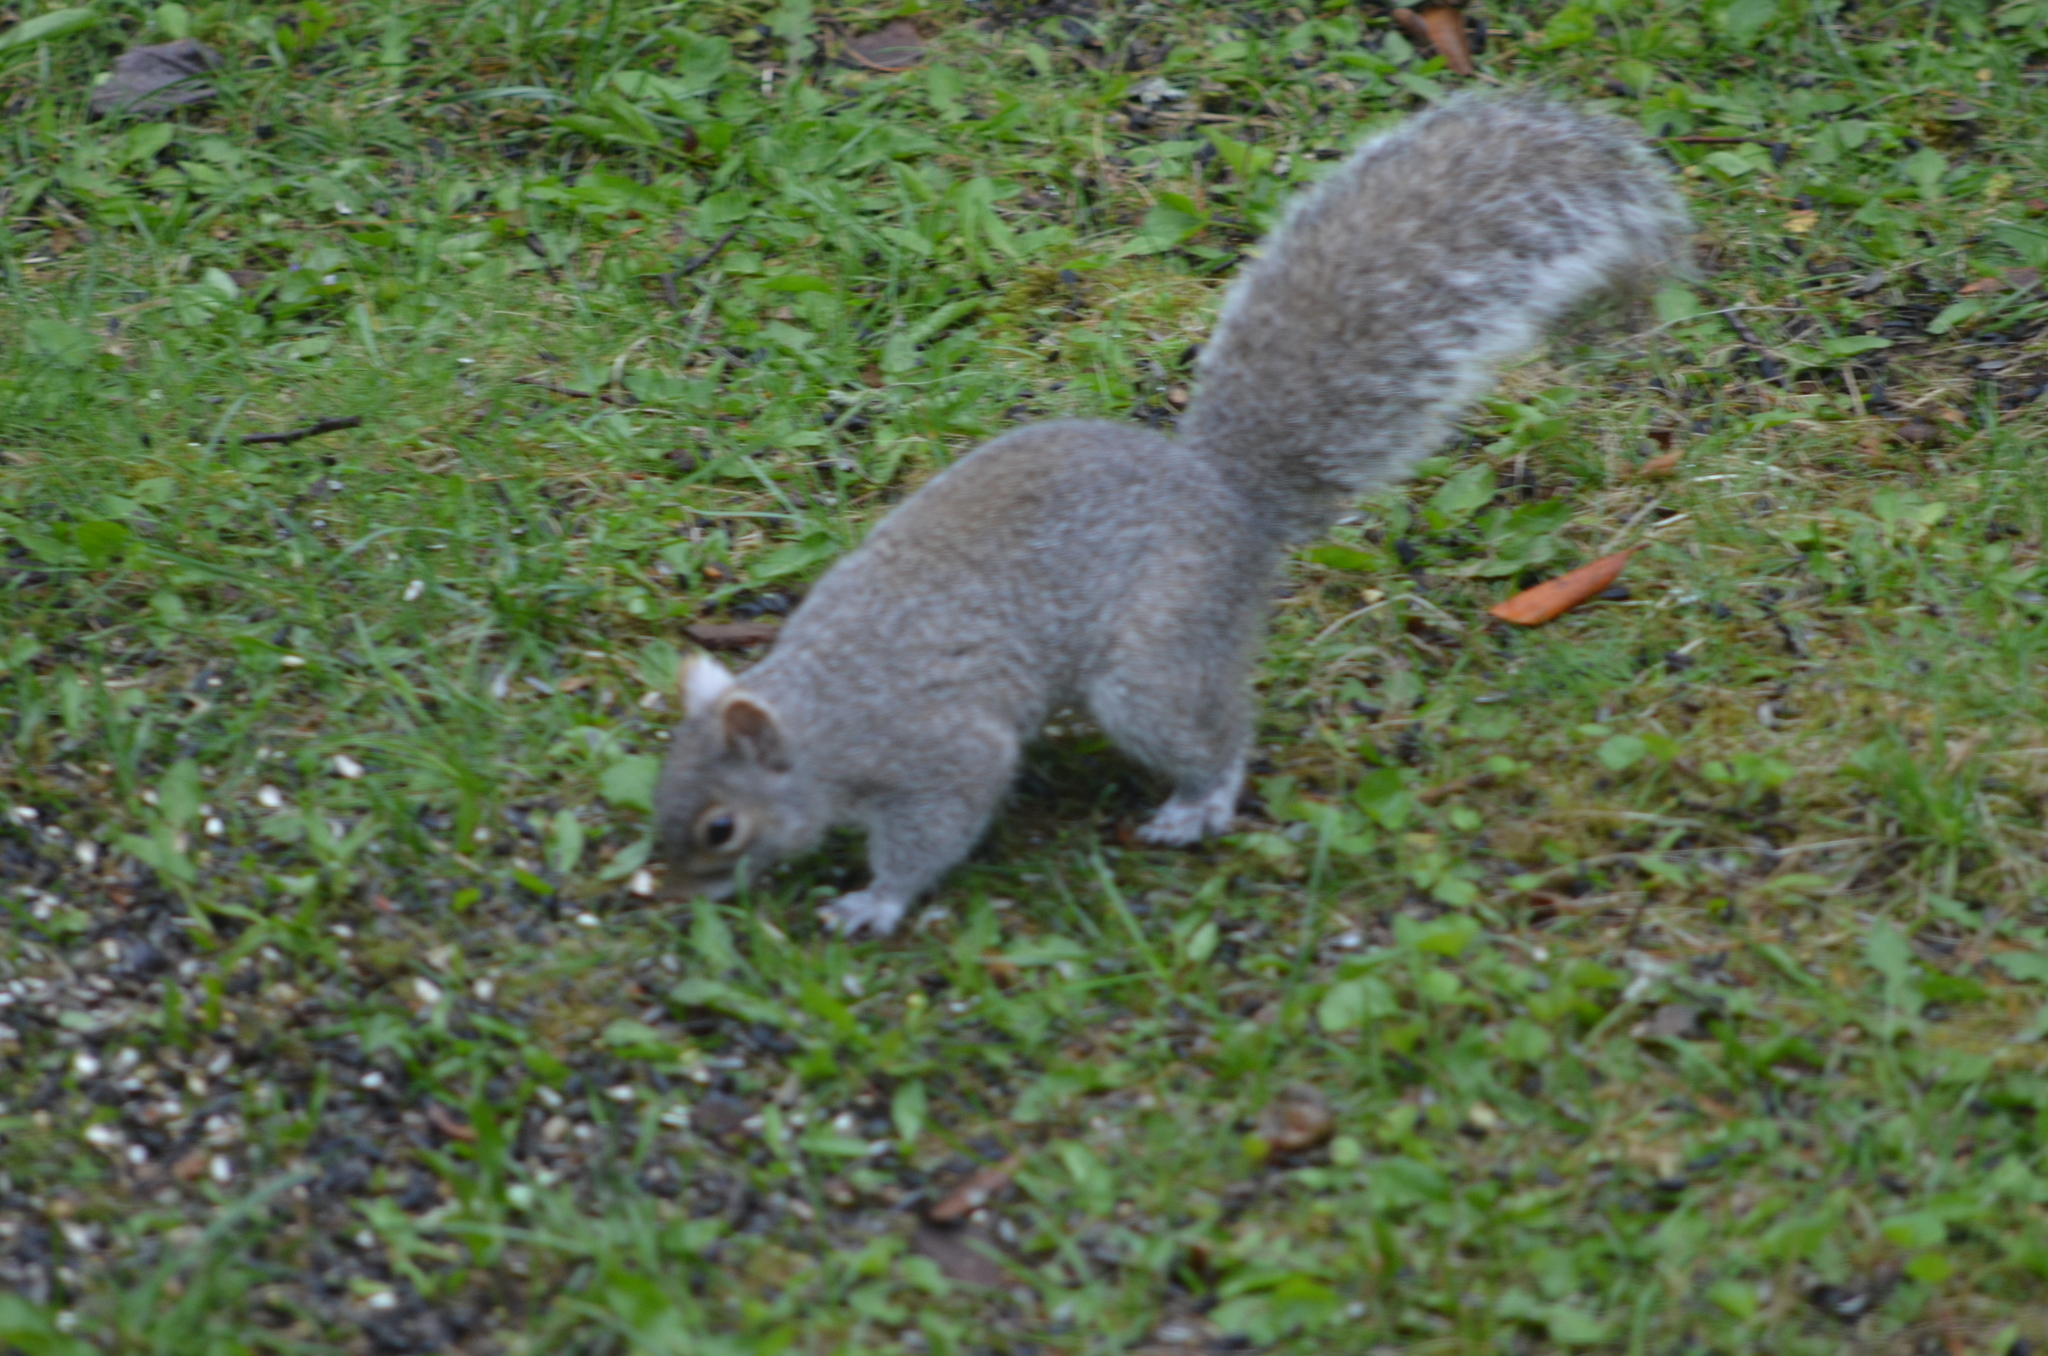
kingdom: Animalia
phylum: Chordata
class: Mammalia
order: Rodentia
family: Sciuridae
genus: Sciurus
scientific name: Sciurus carolinensis
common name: Eastern gray squirrel
